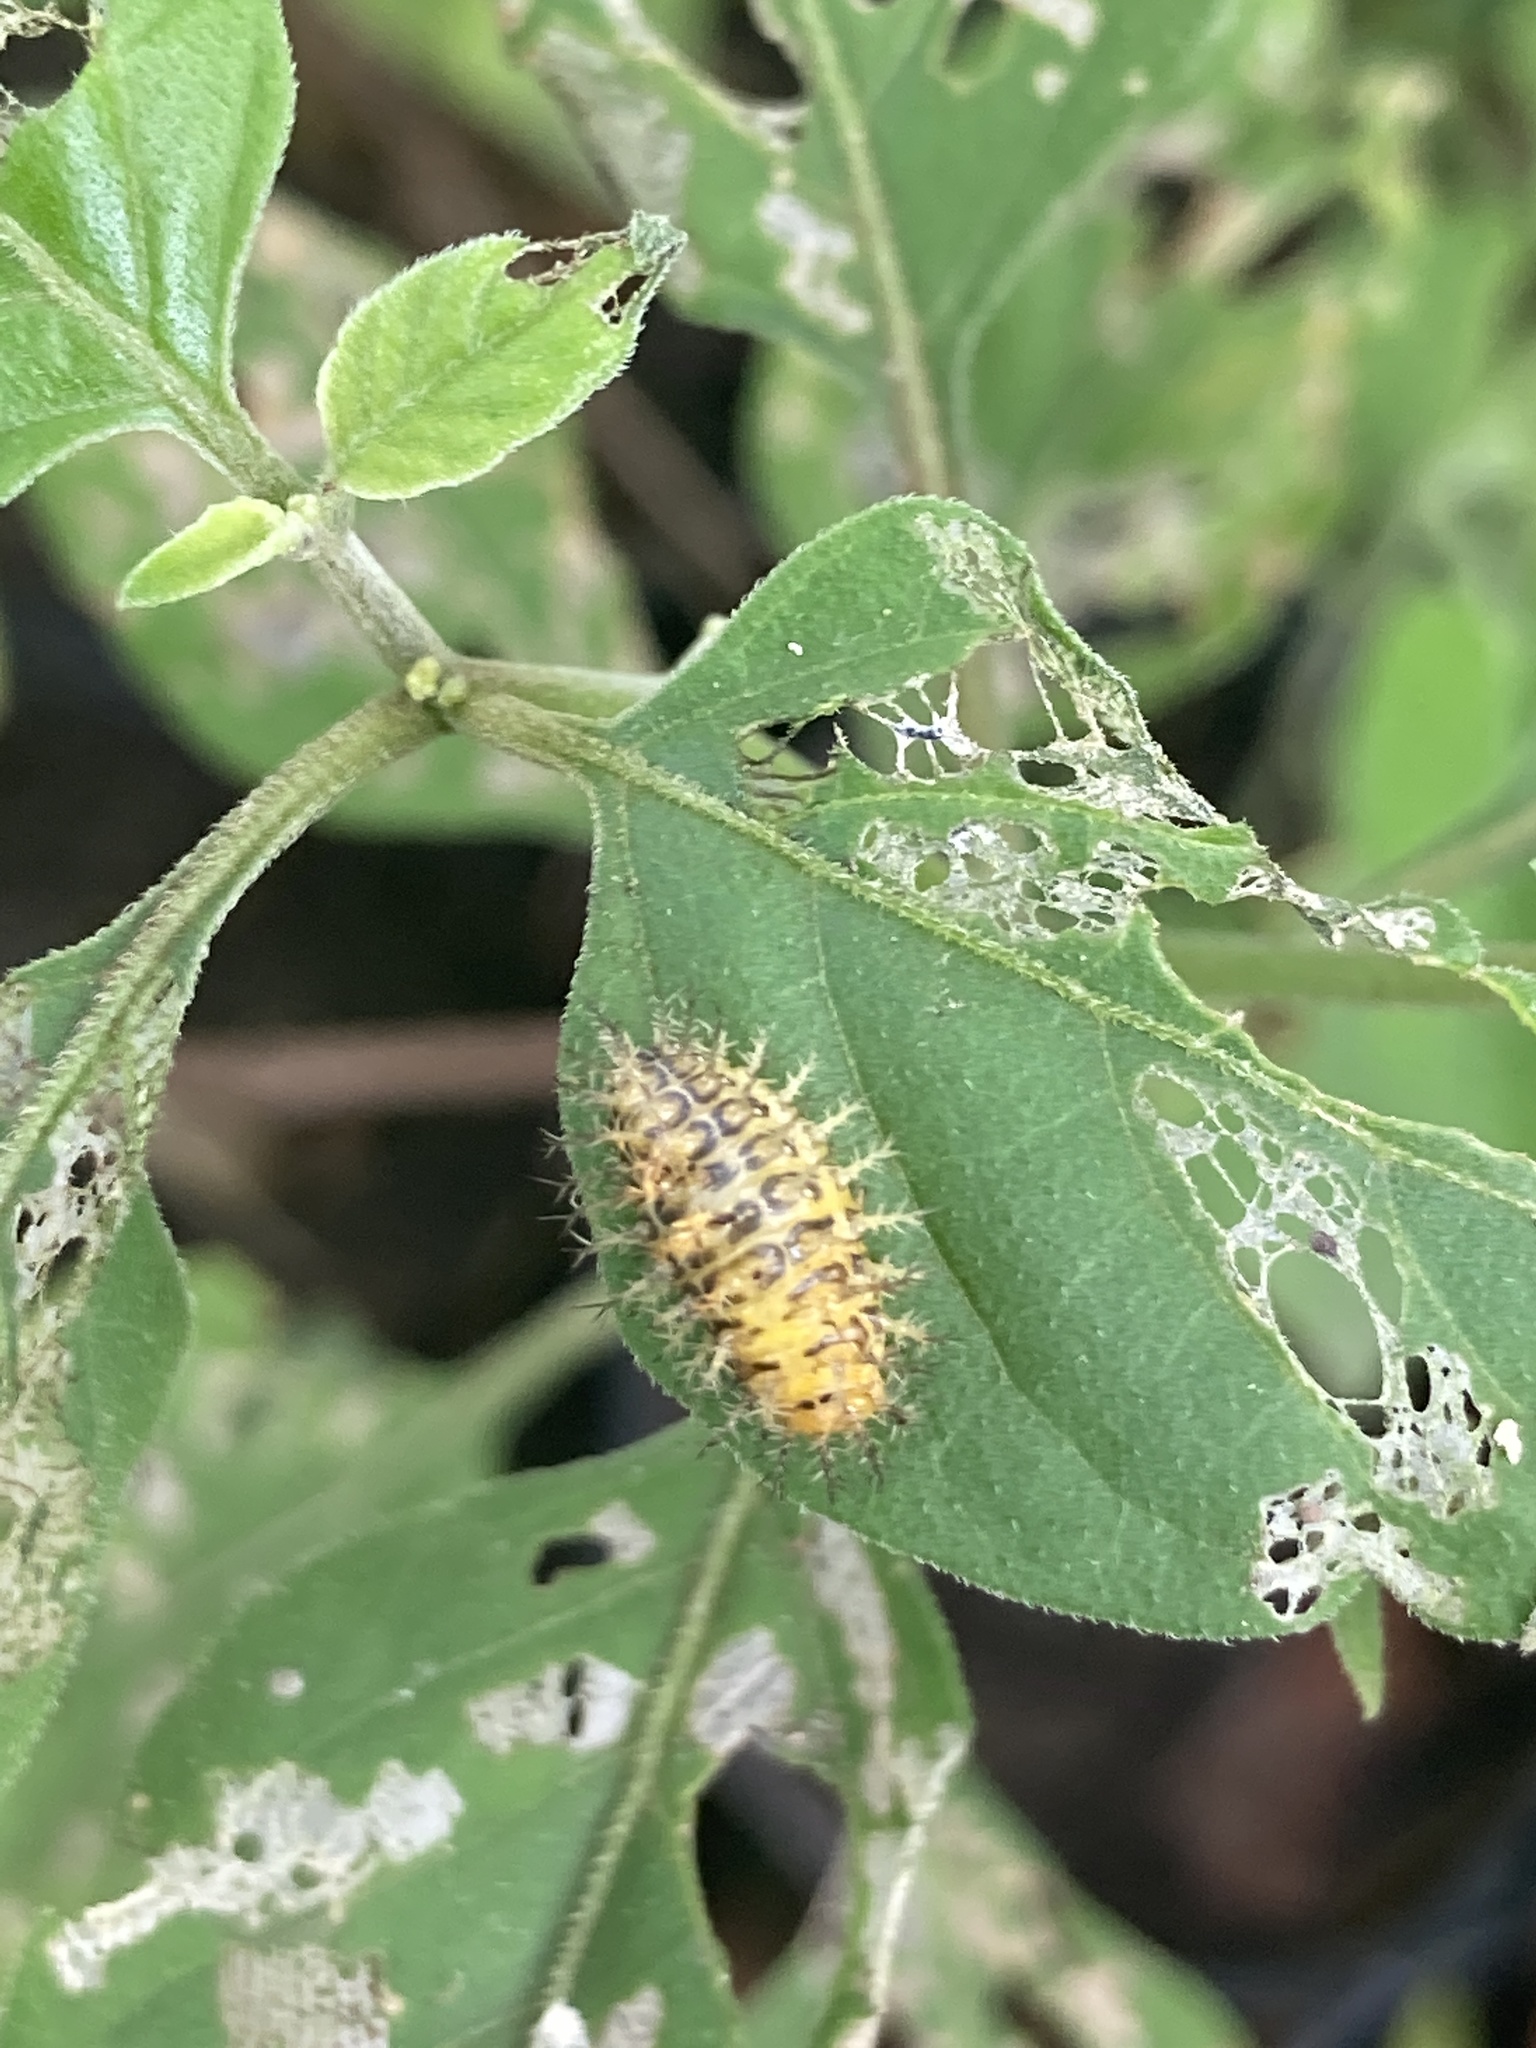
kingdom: Animalia
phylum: Arthropoda
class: Insecta
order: Coleoptera
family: Coccinellidae
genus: Henosepilachna
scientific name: Henosepilachna vigintioctopunctata
